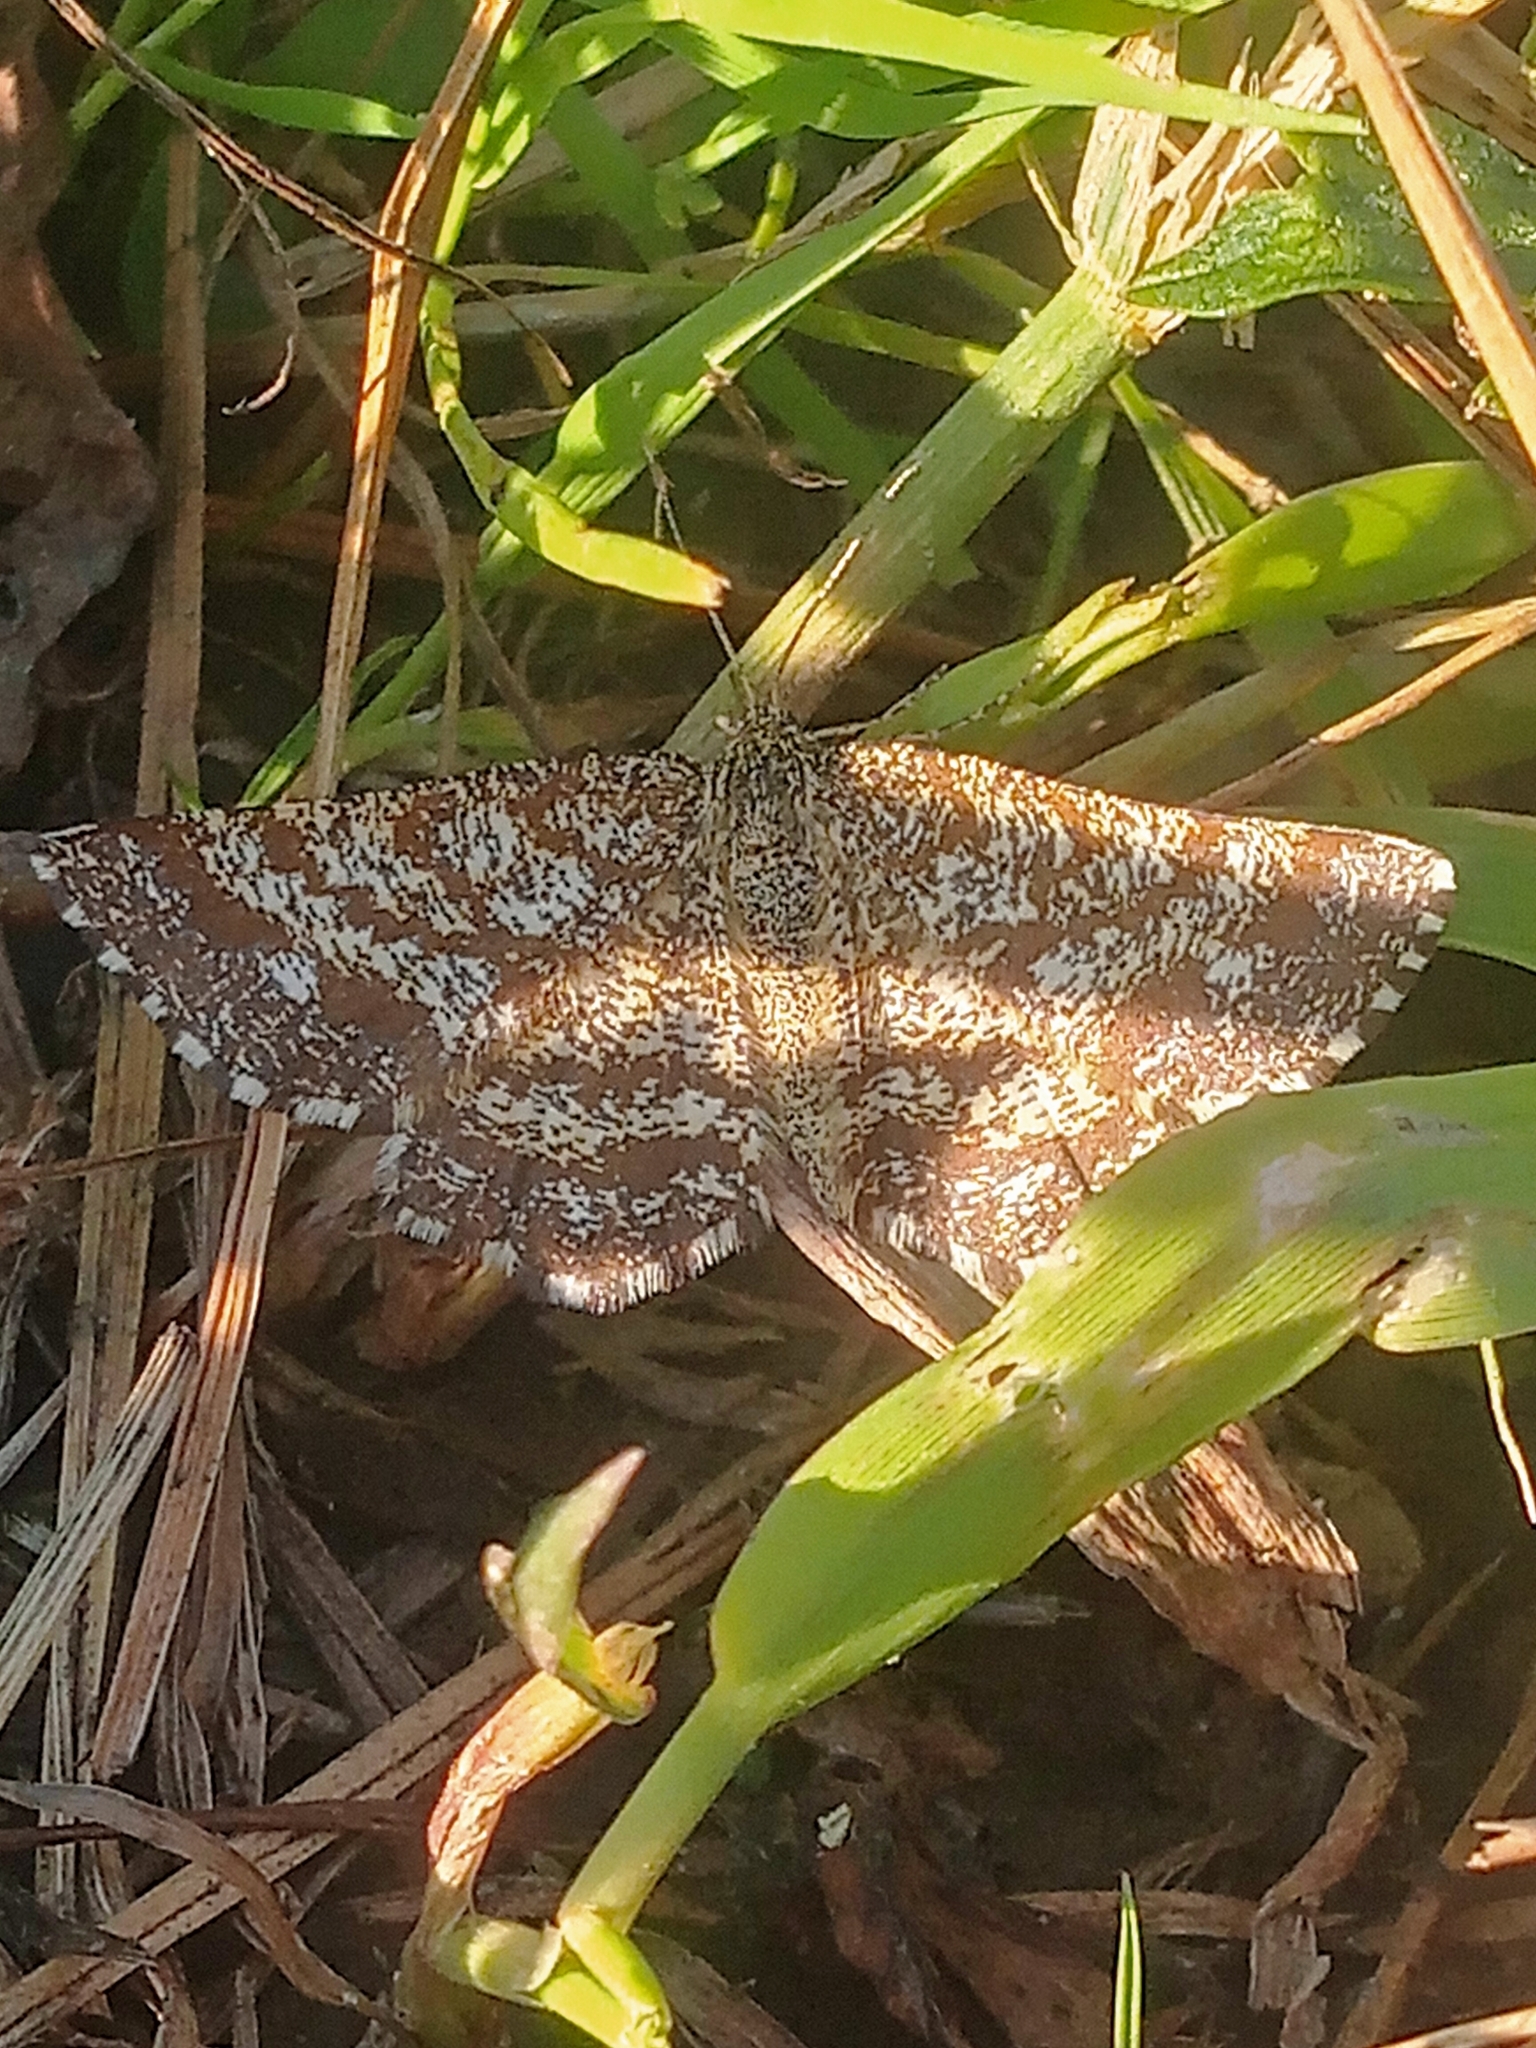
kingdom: Animalia
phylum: Arthropoda
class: Insecta
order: Lepidoptera
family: Geometridae
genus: Ematurga
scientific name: Ematurga atomaria
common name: Common heath
